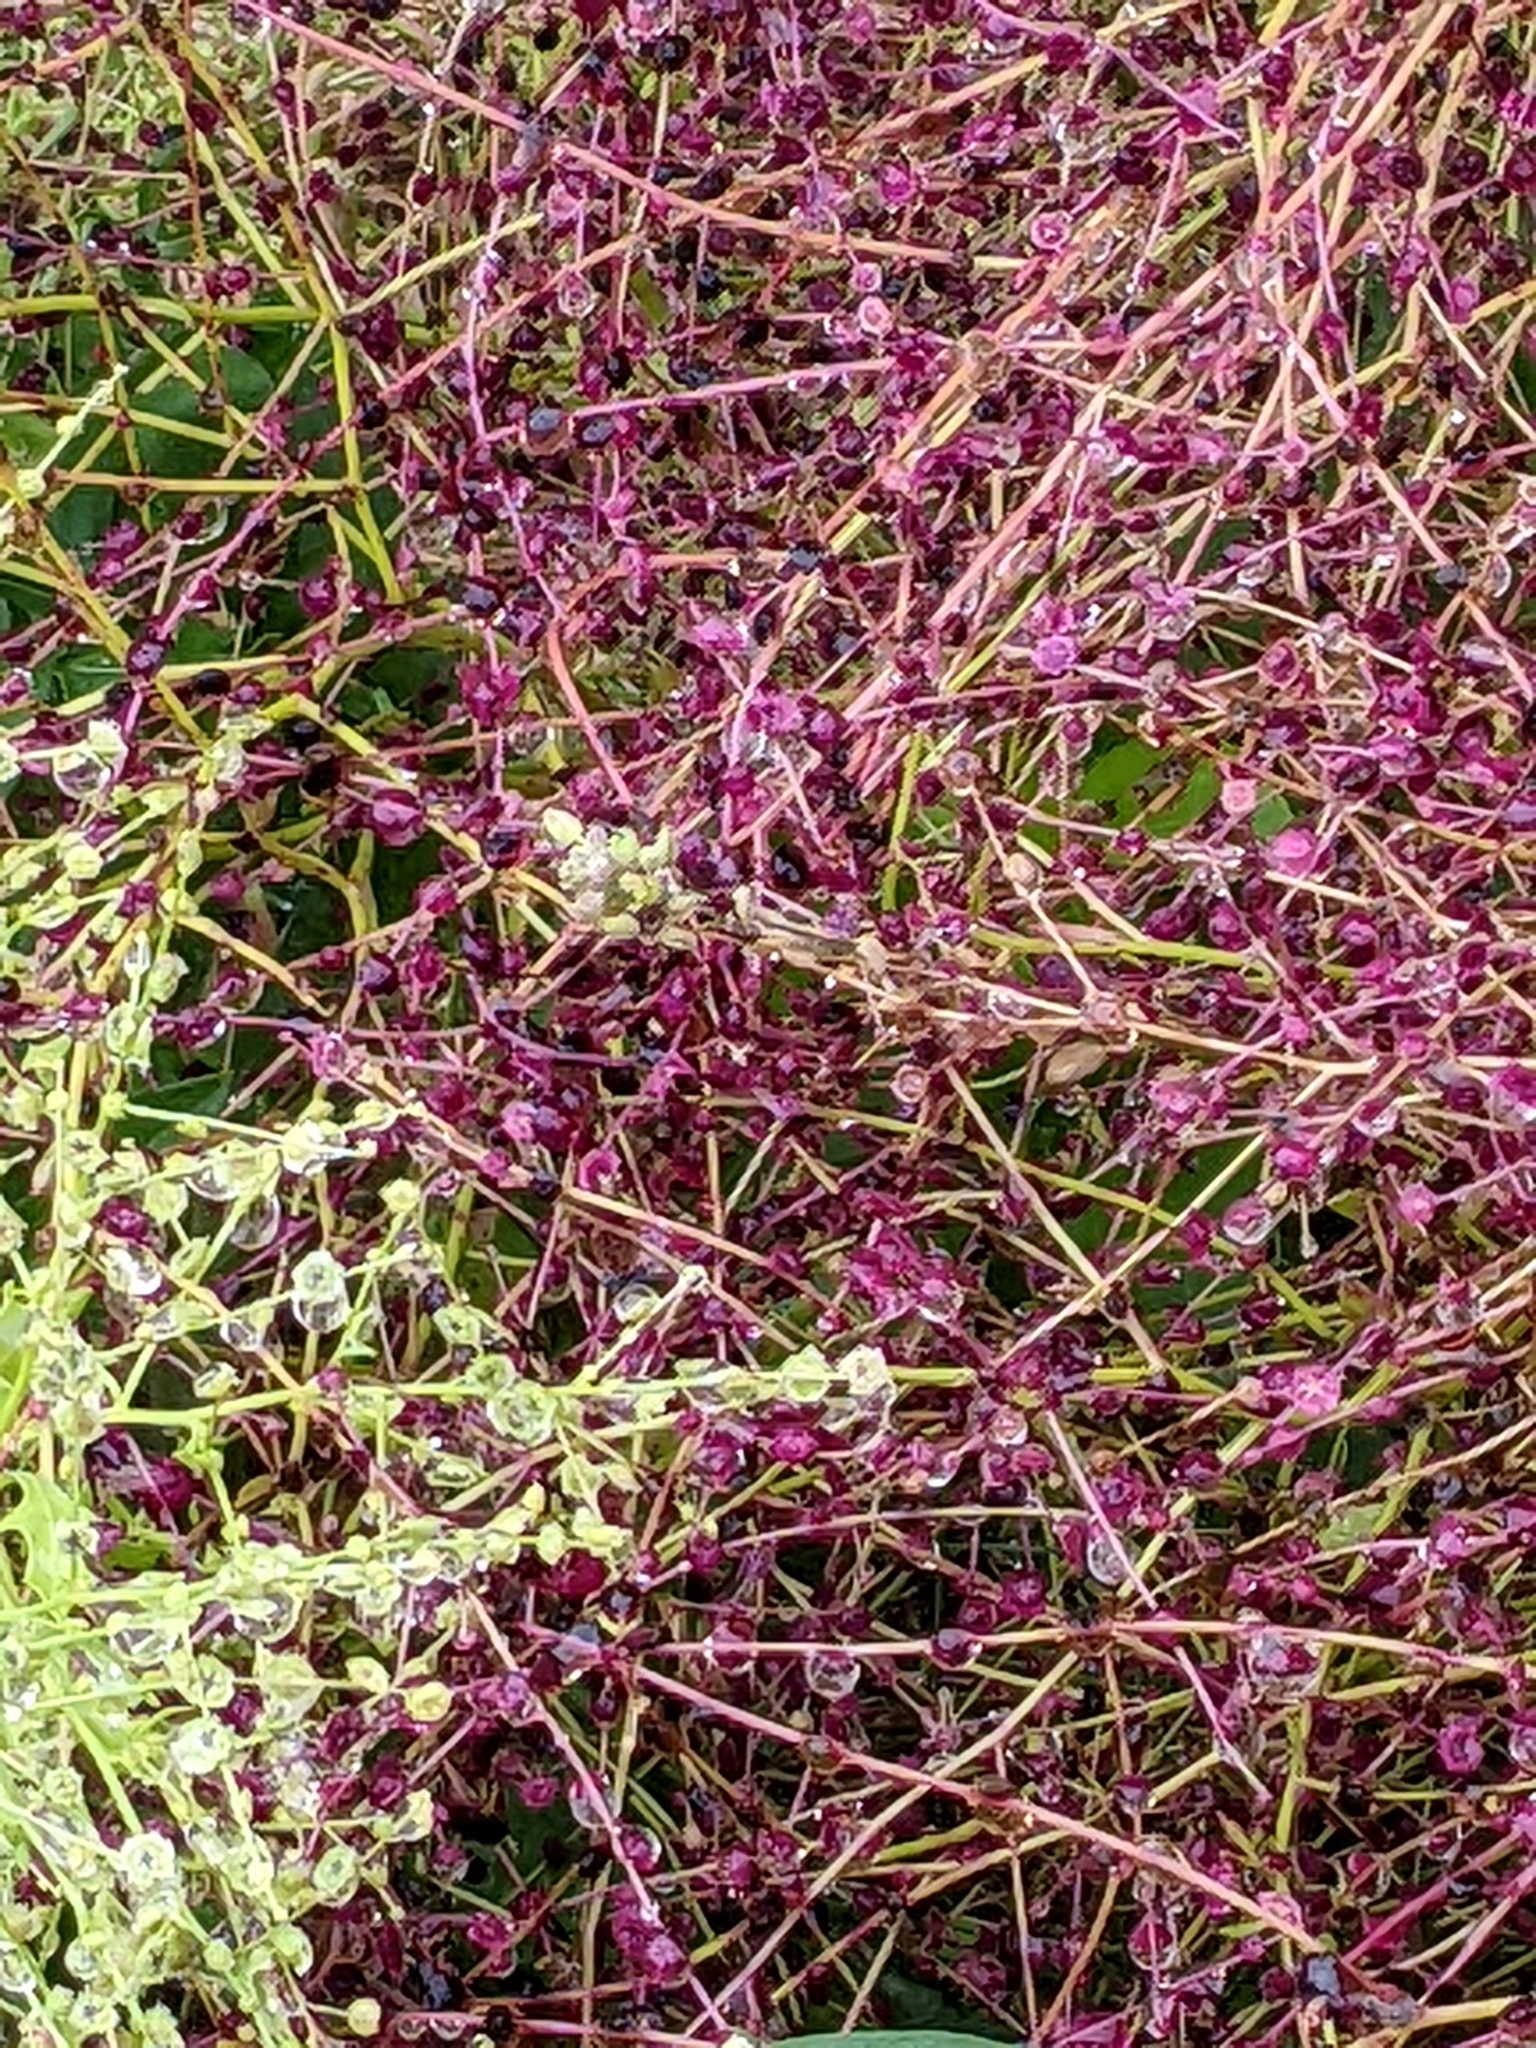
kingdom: Plantae
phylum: Tracheophyta
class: Magnoliopsida
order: Caryophyllales
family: Amaranthaceae
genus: Dysphania
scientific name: Dysphania atriplicifolia
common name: Plains tumbleweed
